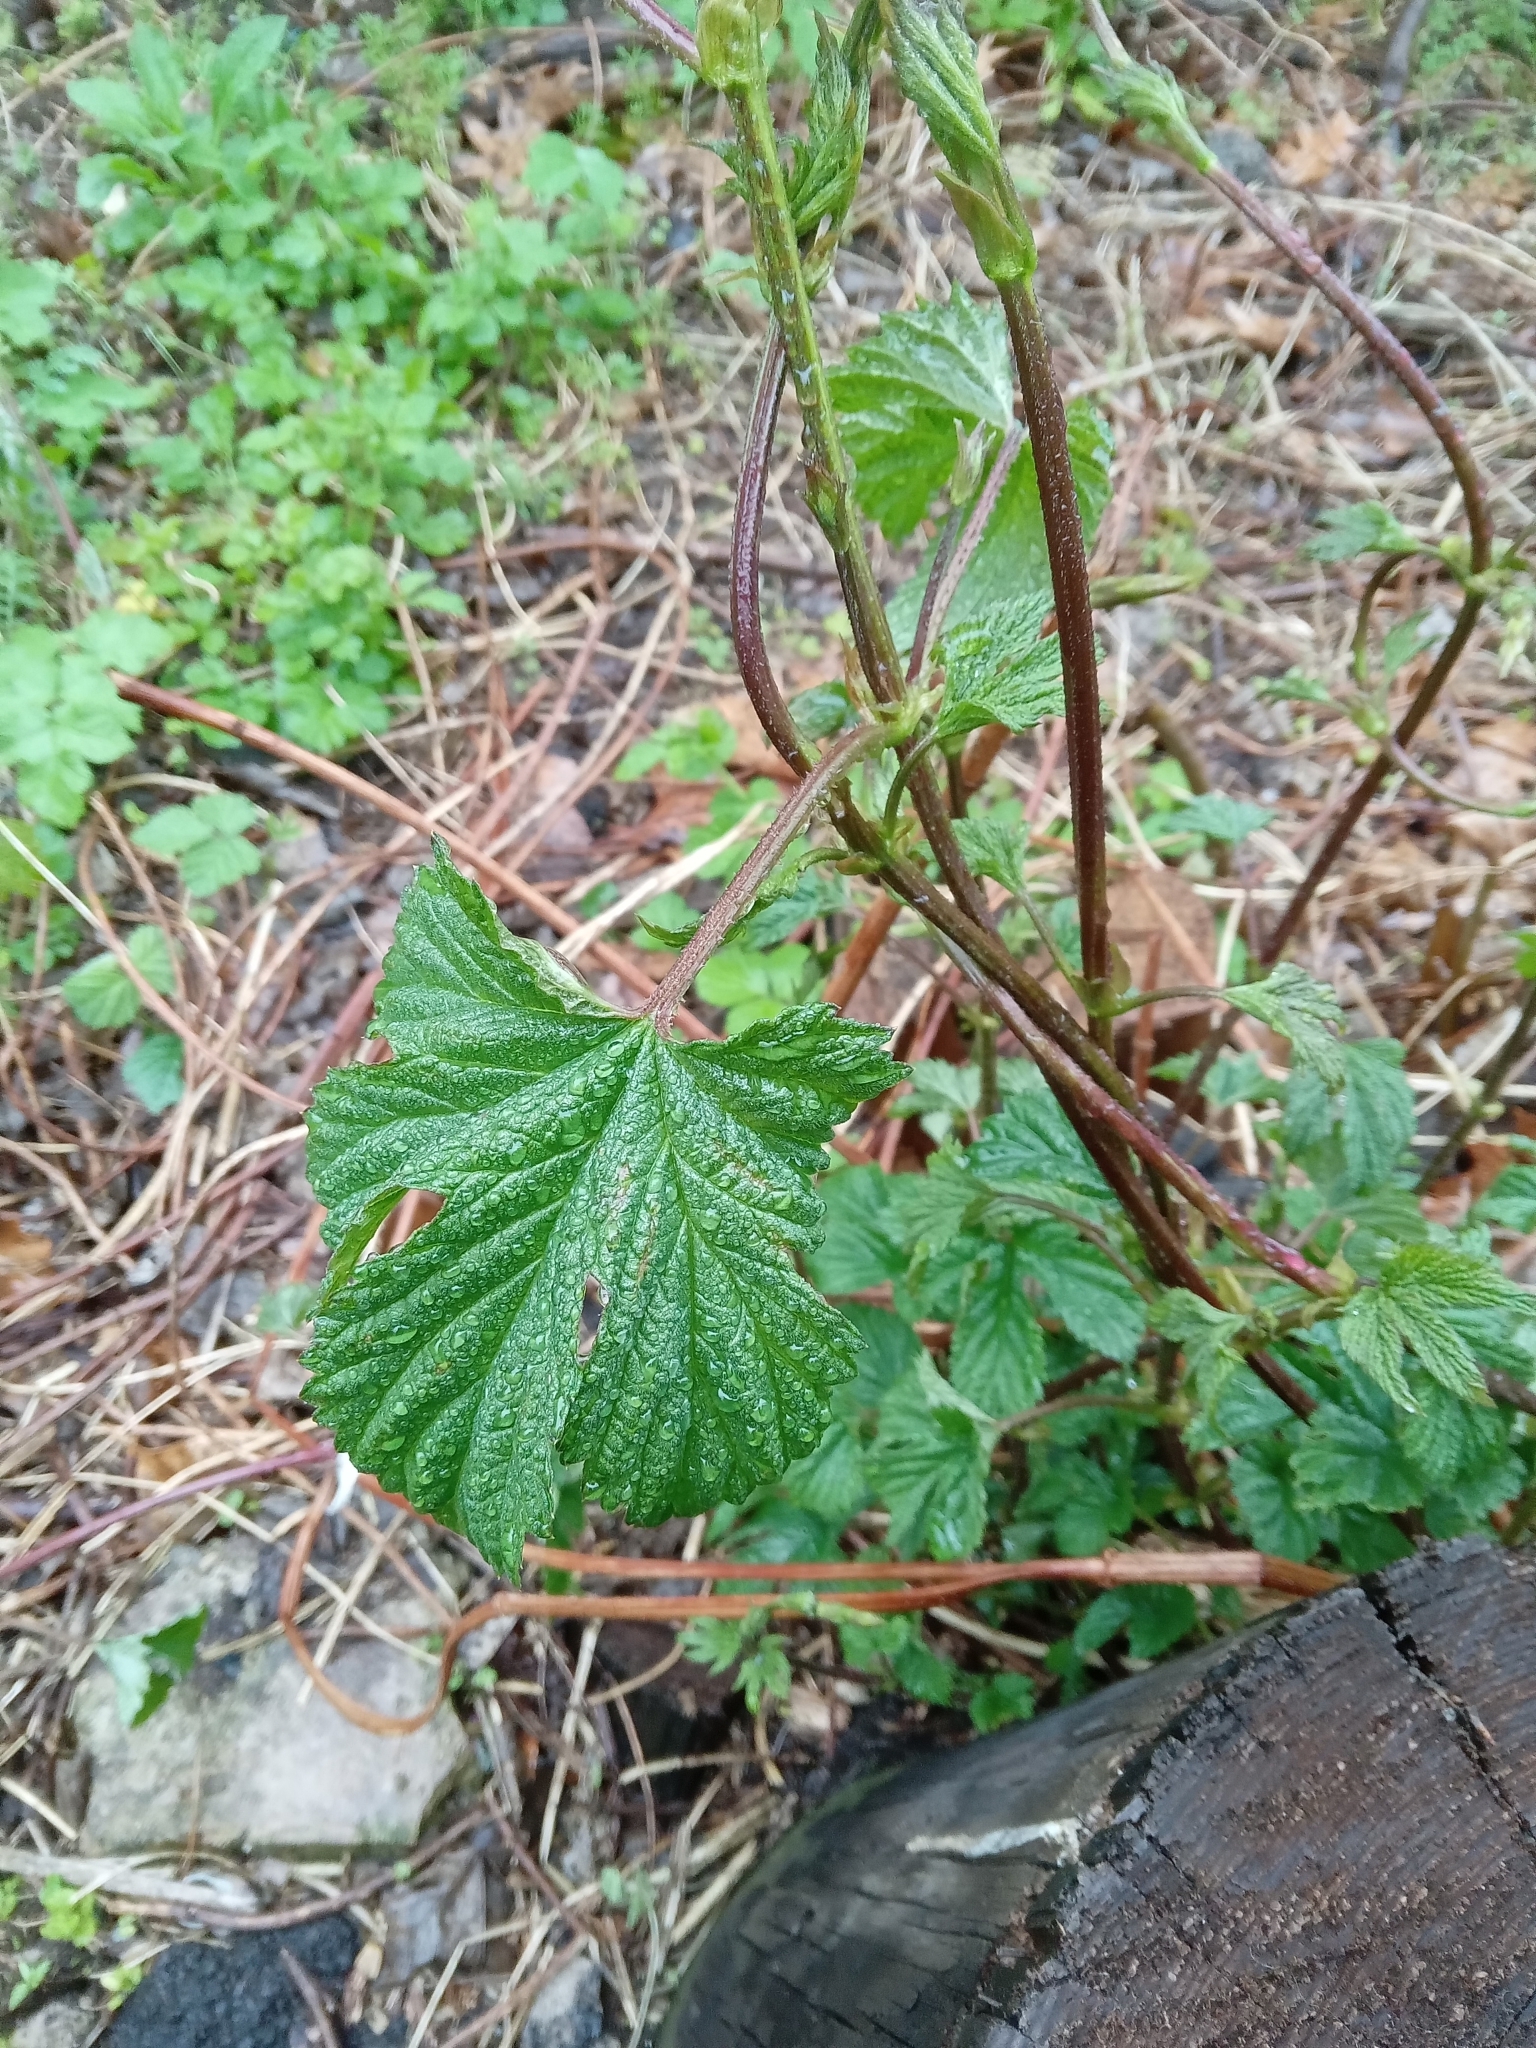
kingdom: Plantae
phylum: Tracheophyta
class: Magnoliopsida
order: Rosales
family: Cannabaceae
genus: Humulus
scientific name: Humulus lupulus
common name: Hop
